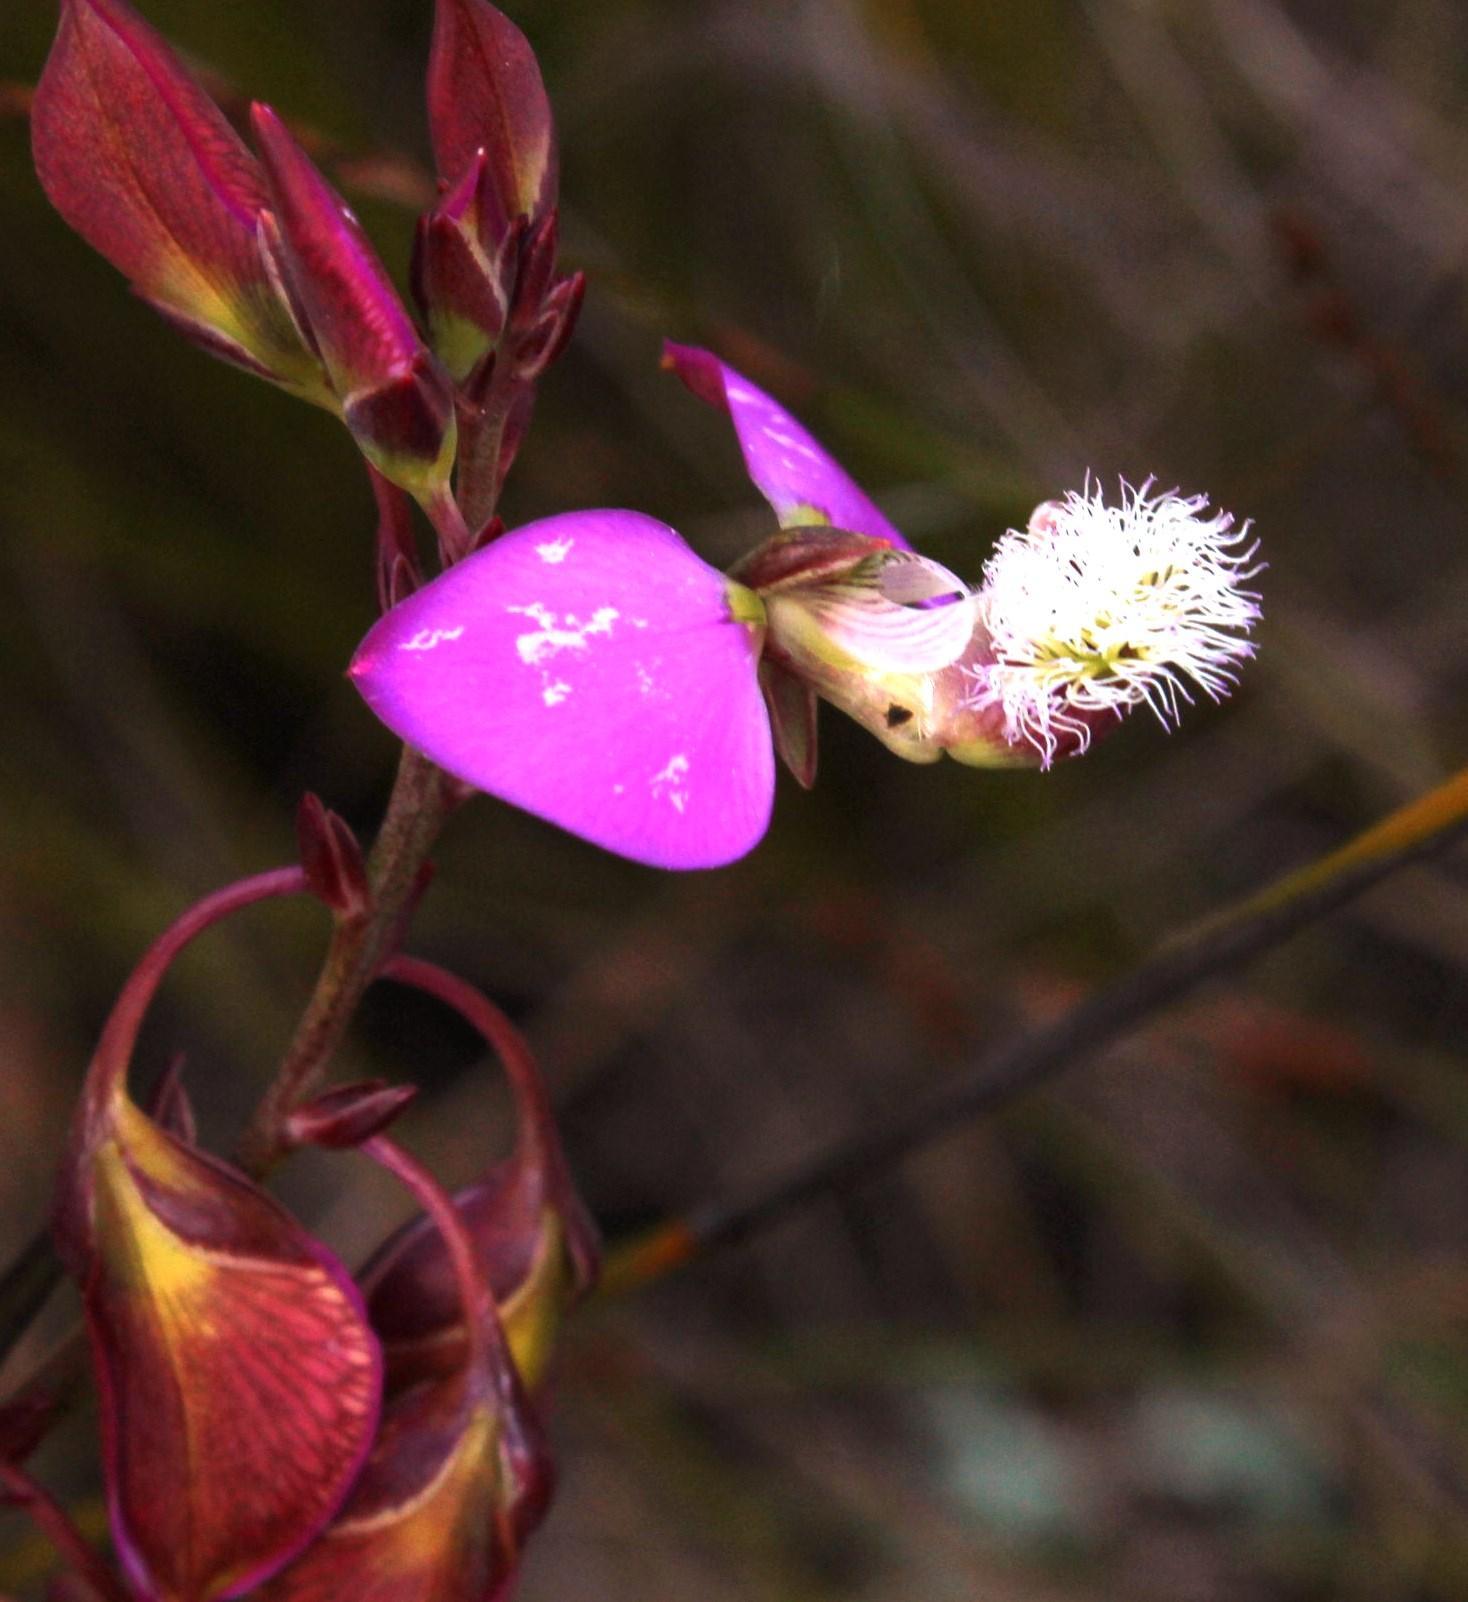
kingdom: Plantae
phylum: Tracheophyta
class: Magnoliopsida
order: Fabales
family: Polygalaceae
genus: Polygala
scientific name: Polygala bracteolata
